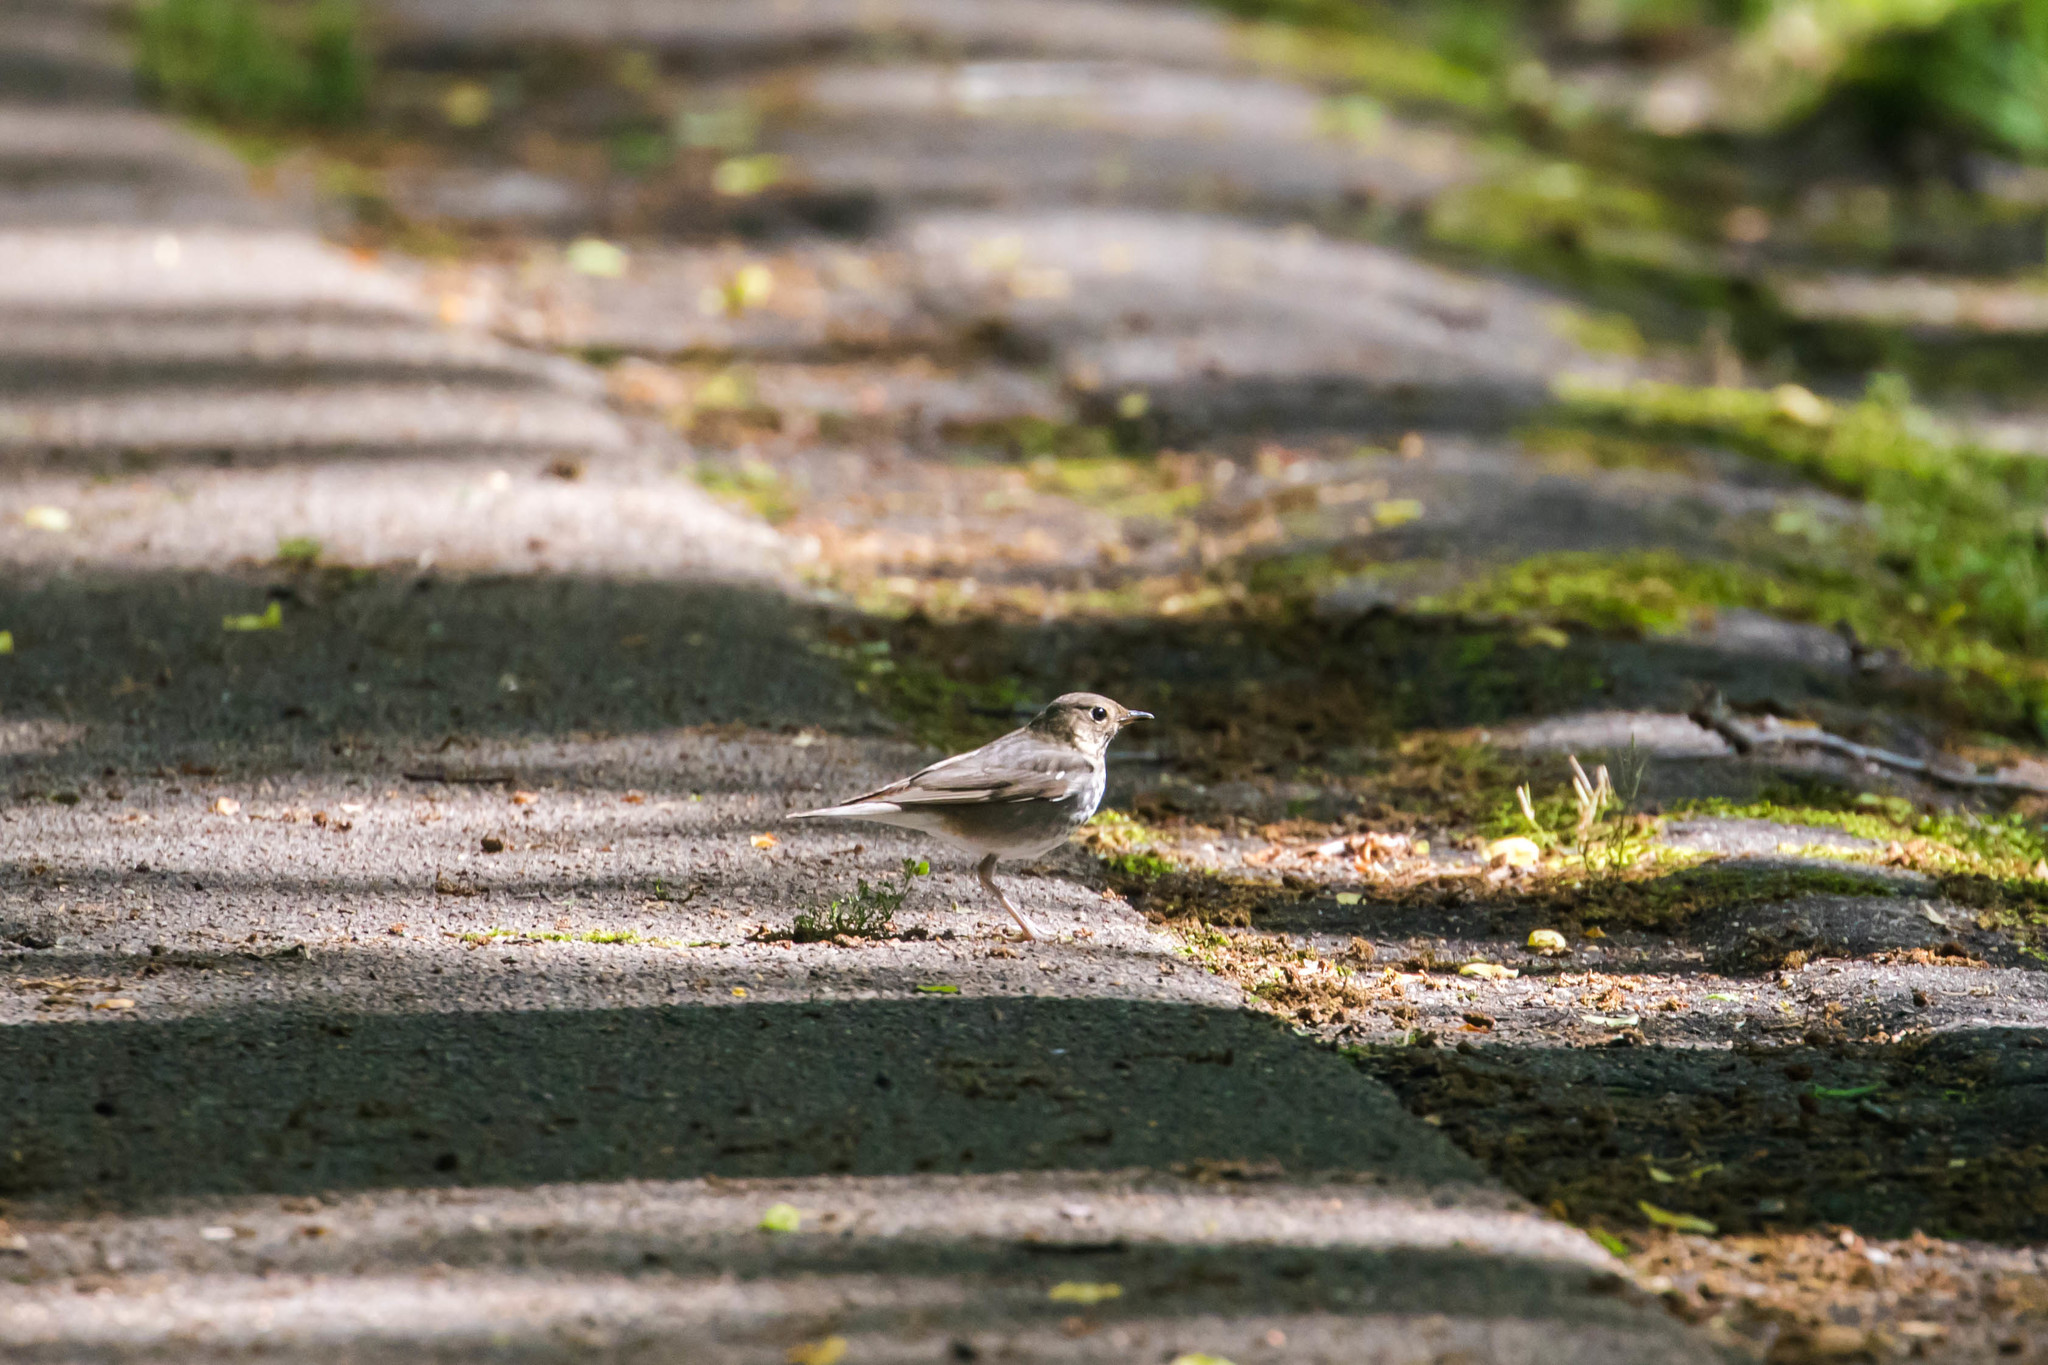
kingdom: Animalia
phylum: Chordata
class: Aves
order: Passeriformes
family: Turdidae
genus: Catharus
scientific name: Catharus minimus
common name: Grey-cheeked thrush
